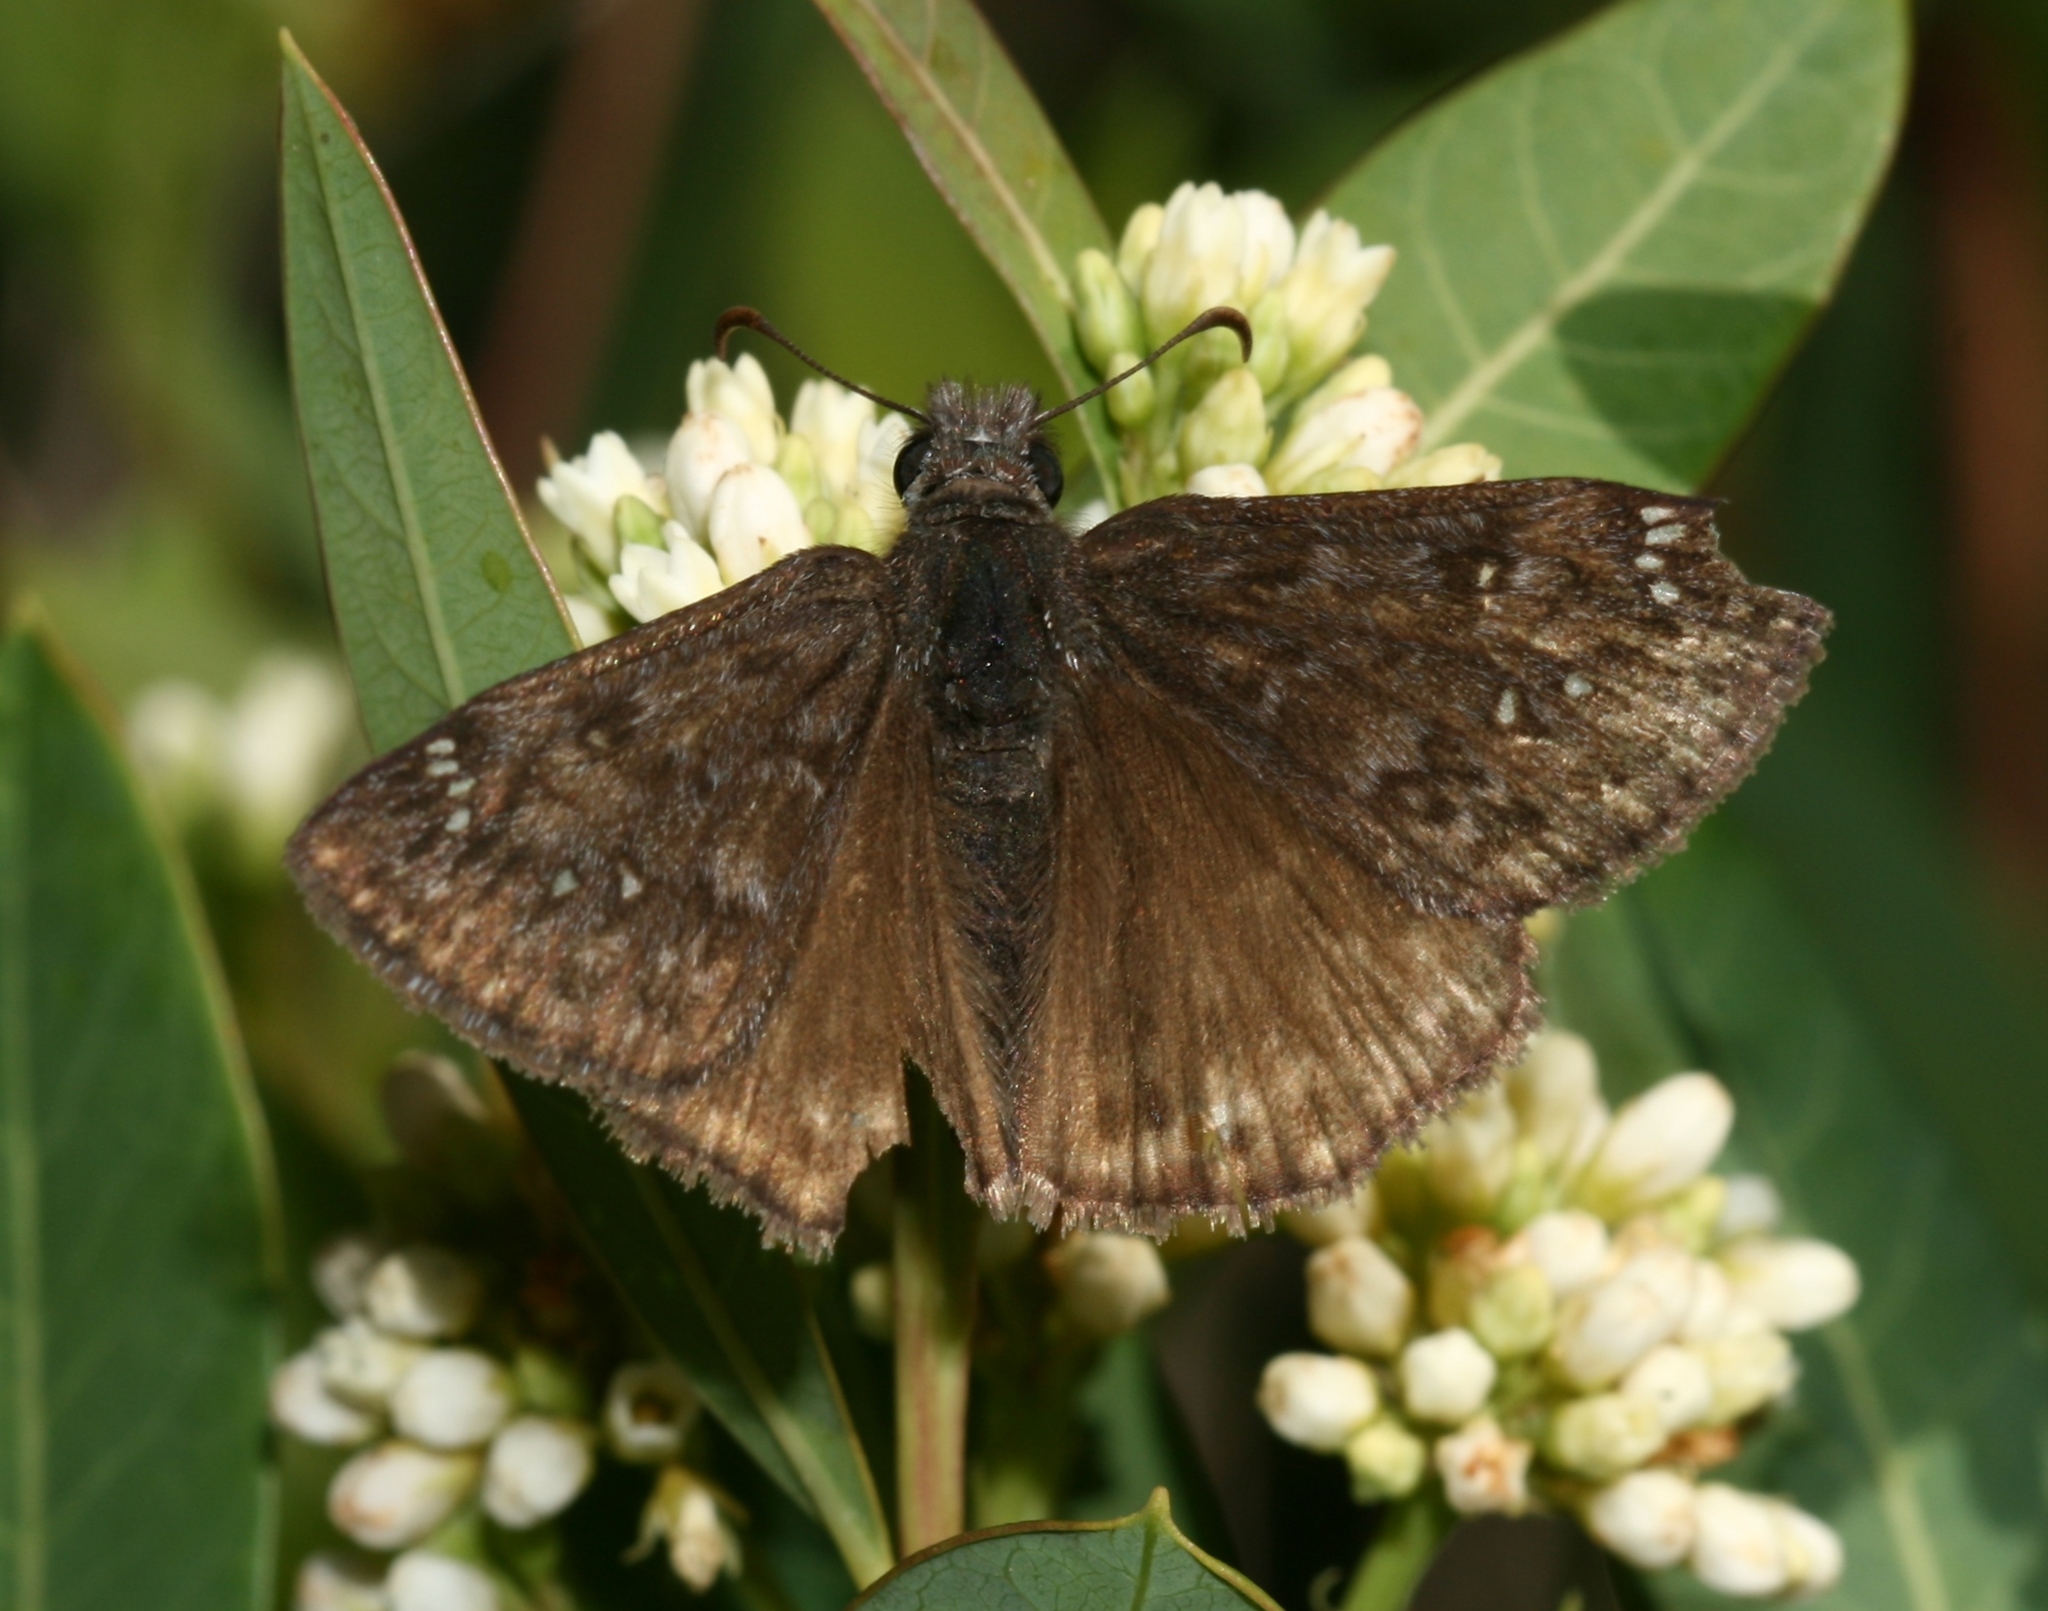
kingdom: Animalia
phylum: Arthropoda
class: Insecta
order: Lepidoptera
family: Hesperiidae
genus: Erynnis
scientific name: Erynnis propertius
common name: Propertius duskywing
